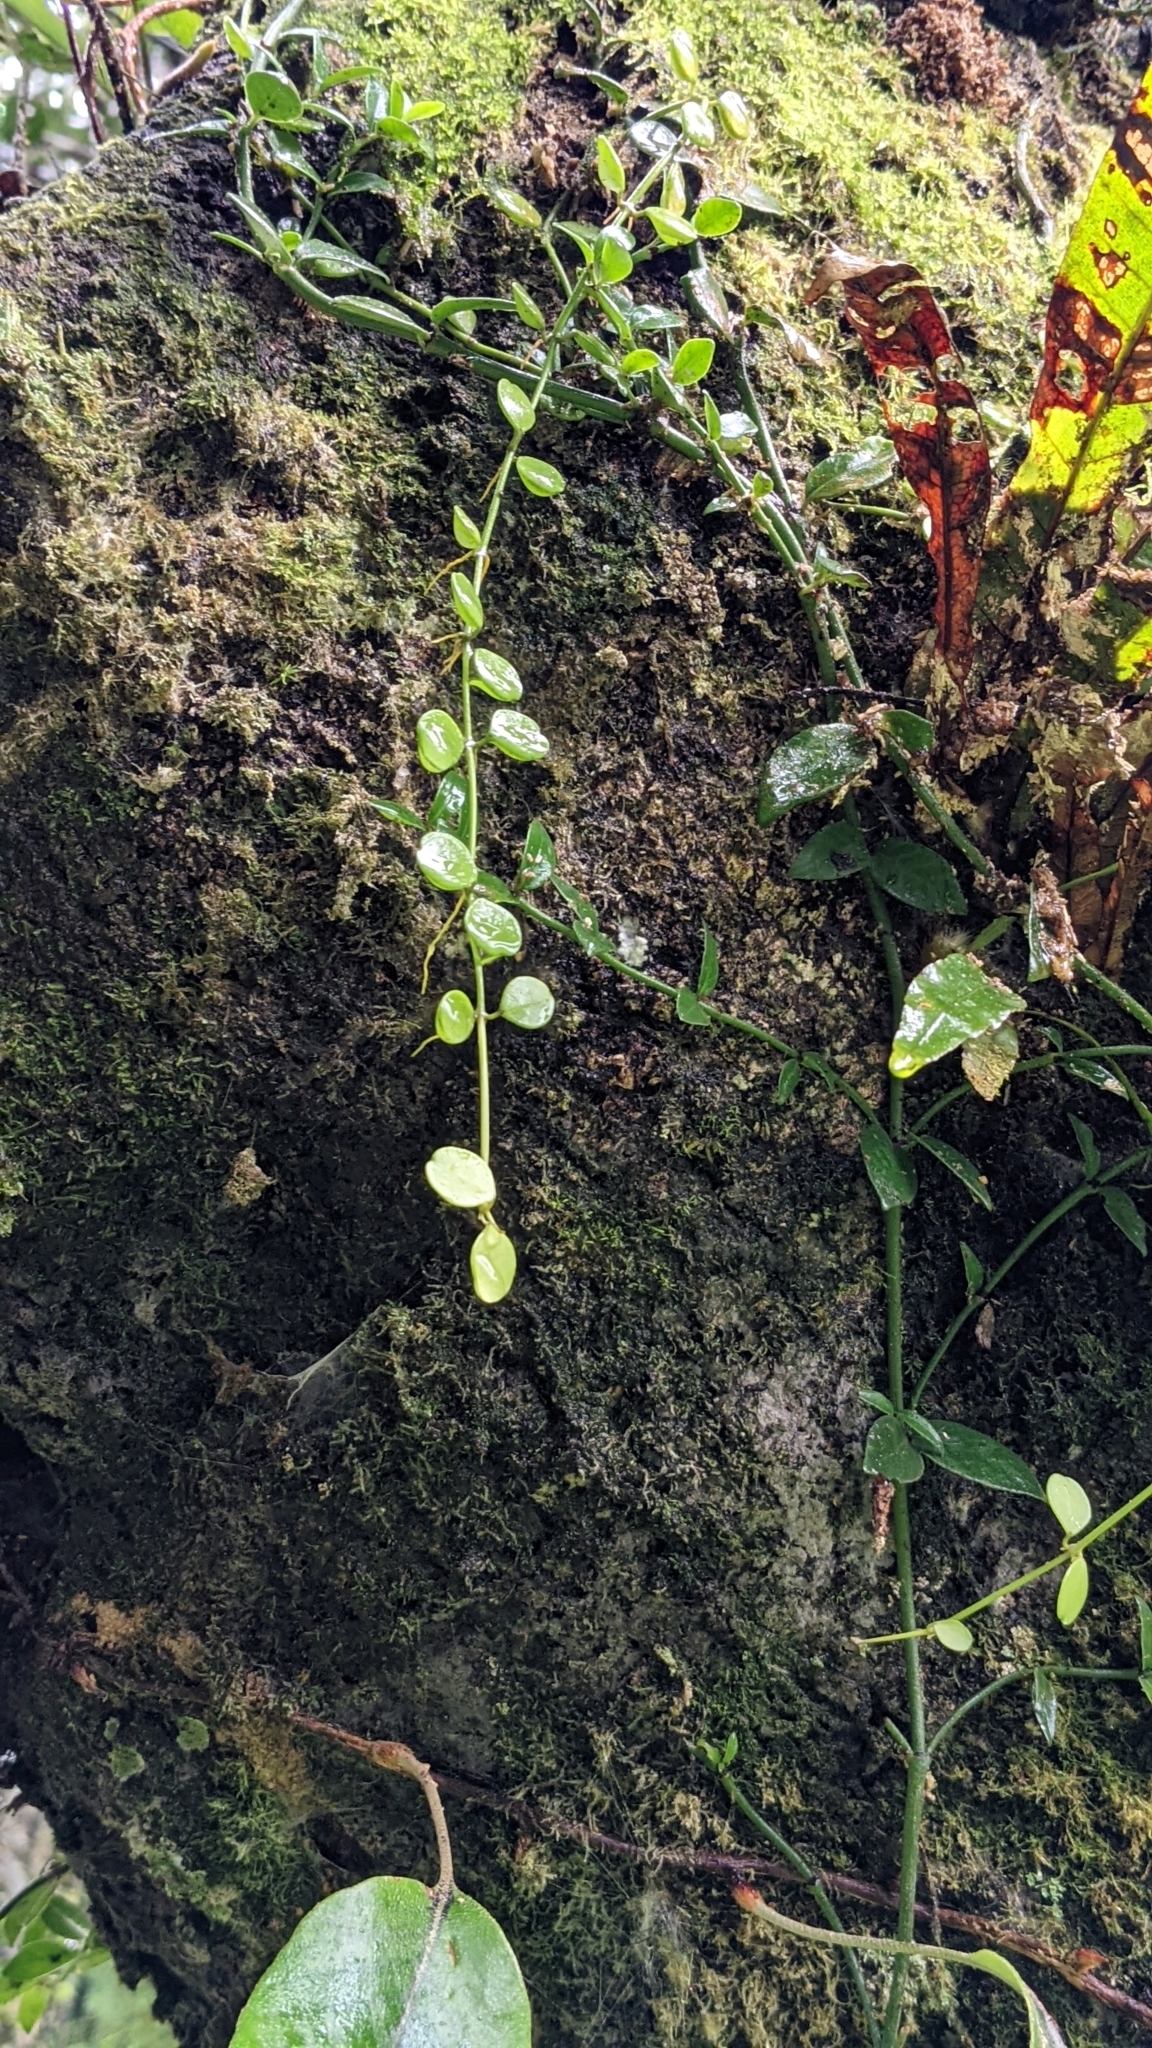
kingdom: Plantae
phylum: Tracheophyta
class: Magnoliopsida
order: Gentianales
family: Apocynaceae
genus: Dischidia
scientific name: Dischidia formosana
